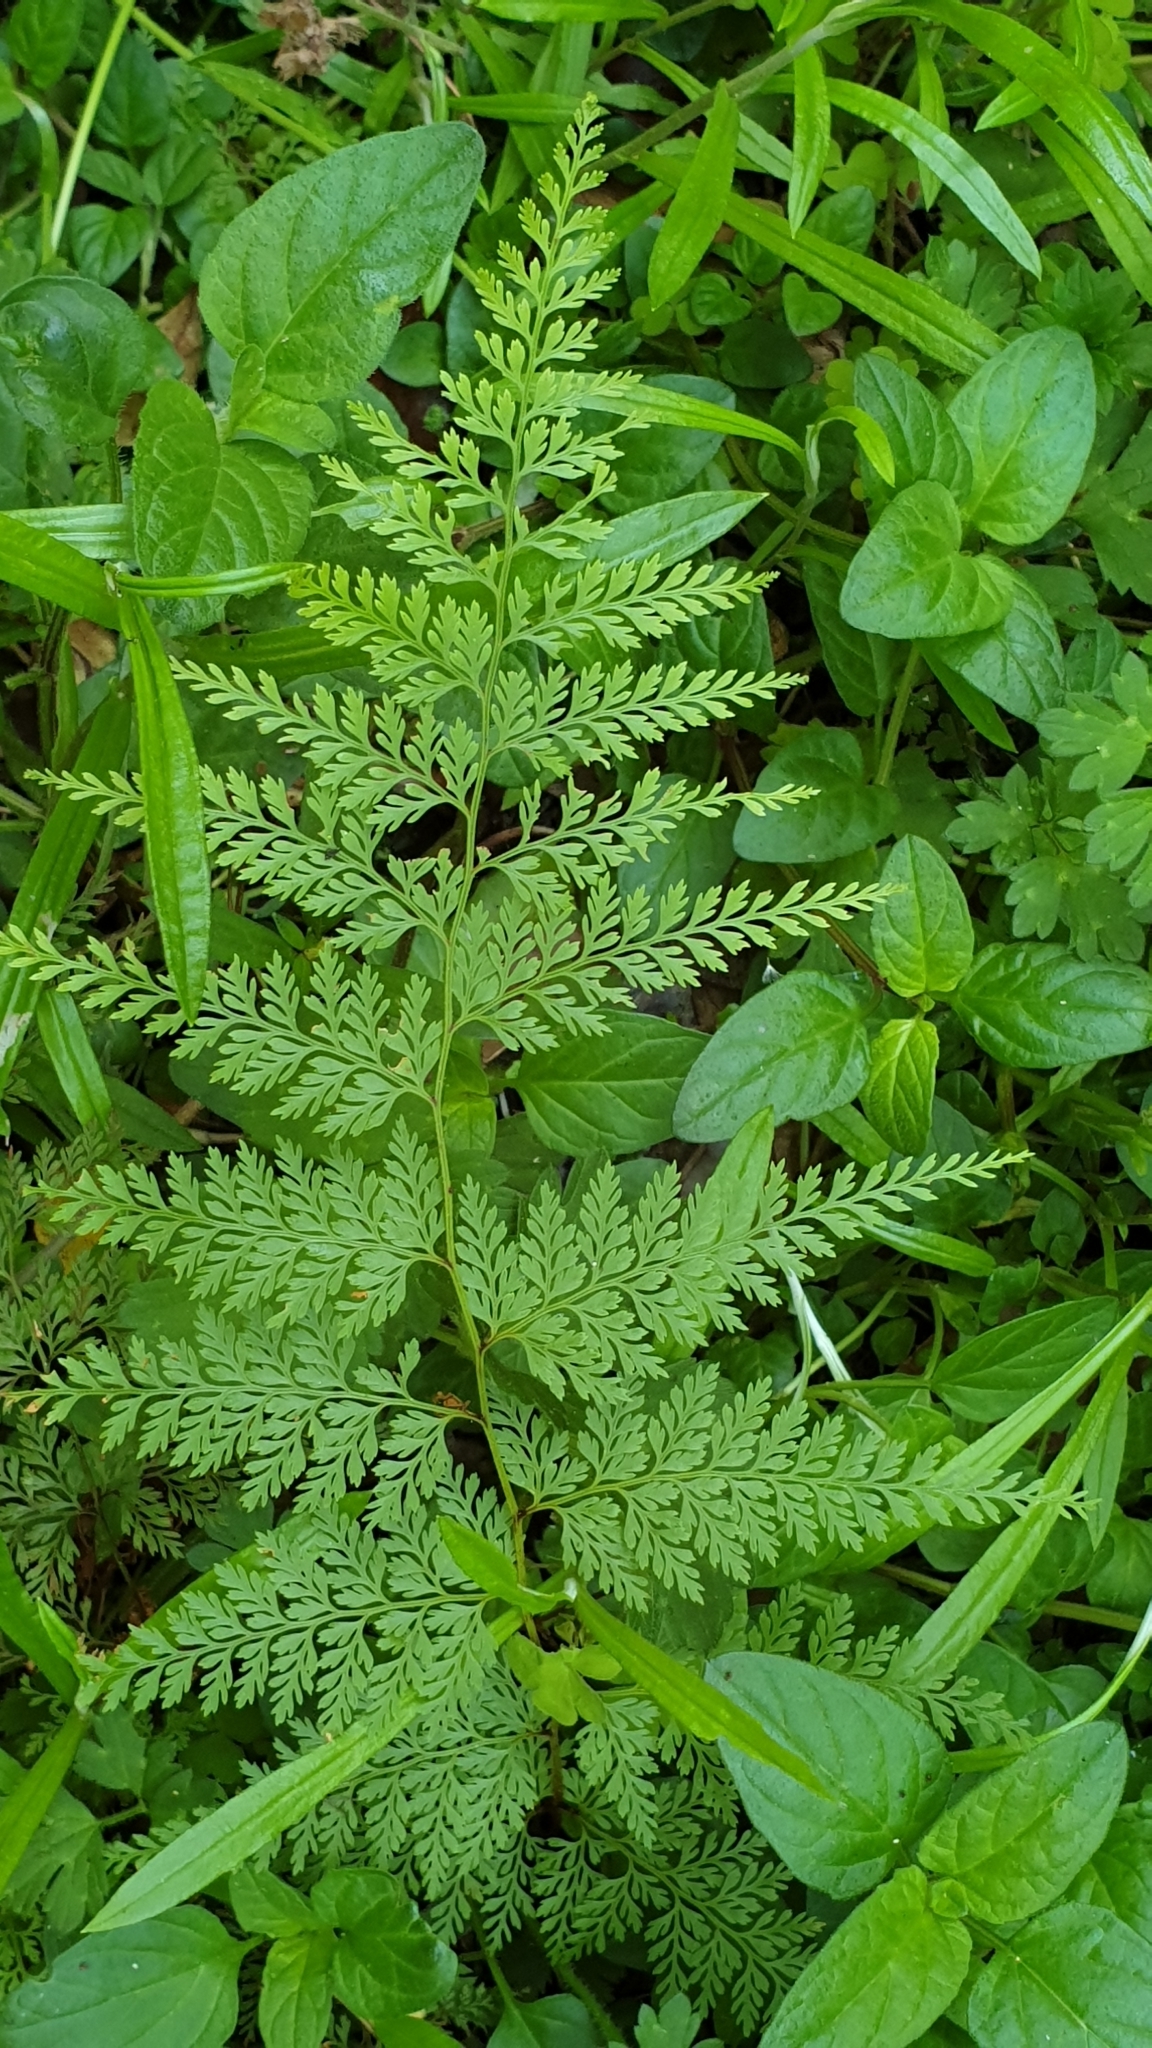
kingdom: Plantae
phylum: Tracheophyta
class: Polypodiopsida
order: Polypodiales
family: Dennstaedtiaceae
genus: Paesia
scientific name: Paesia scaberula
